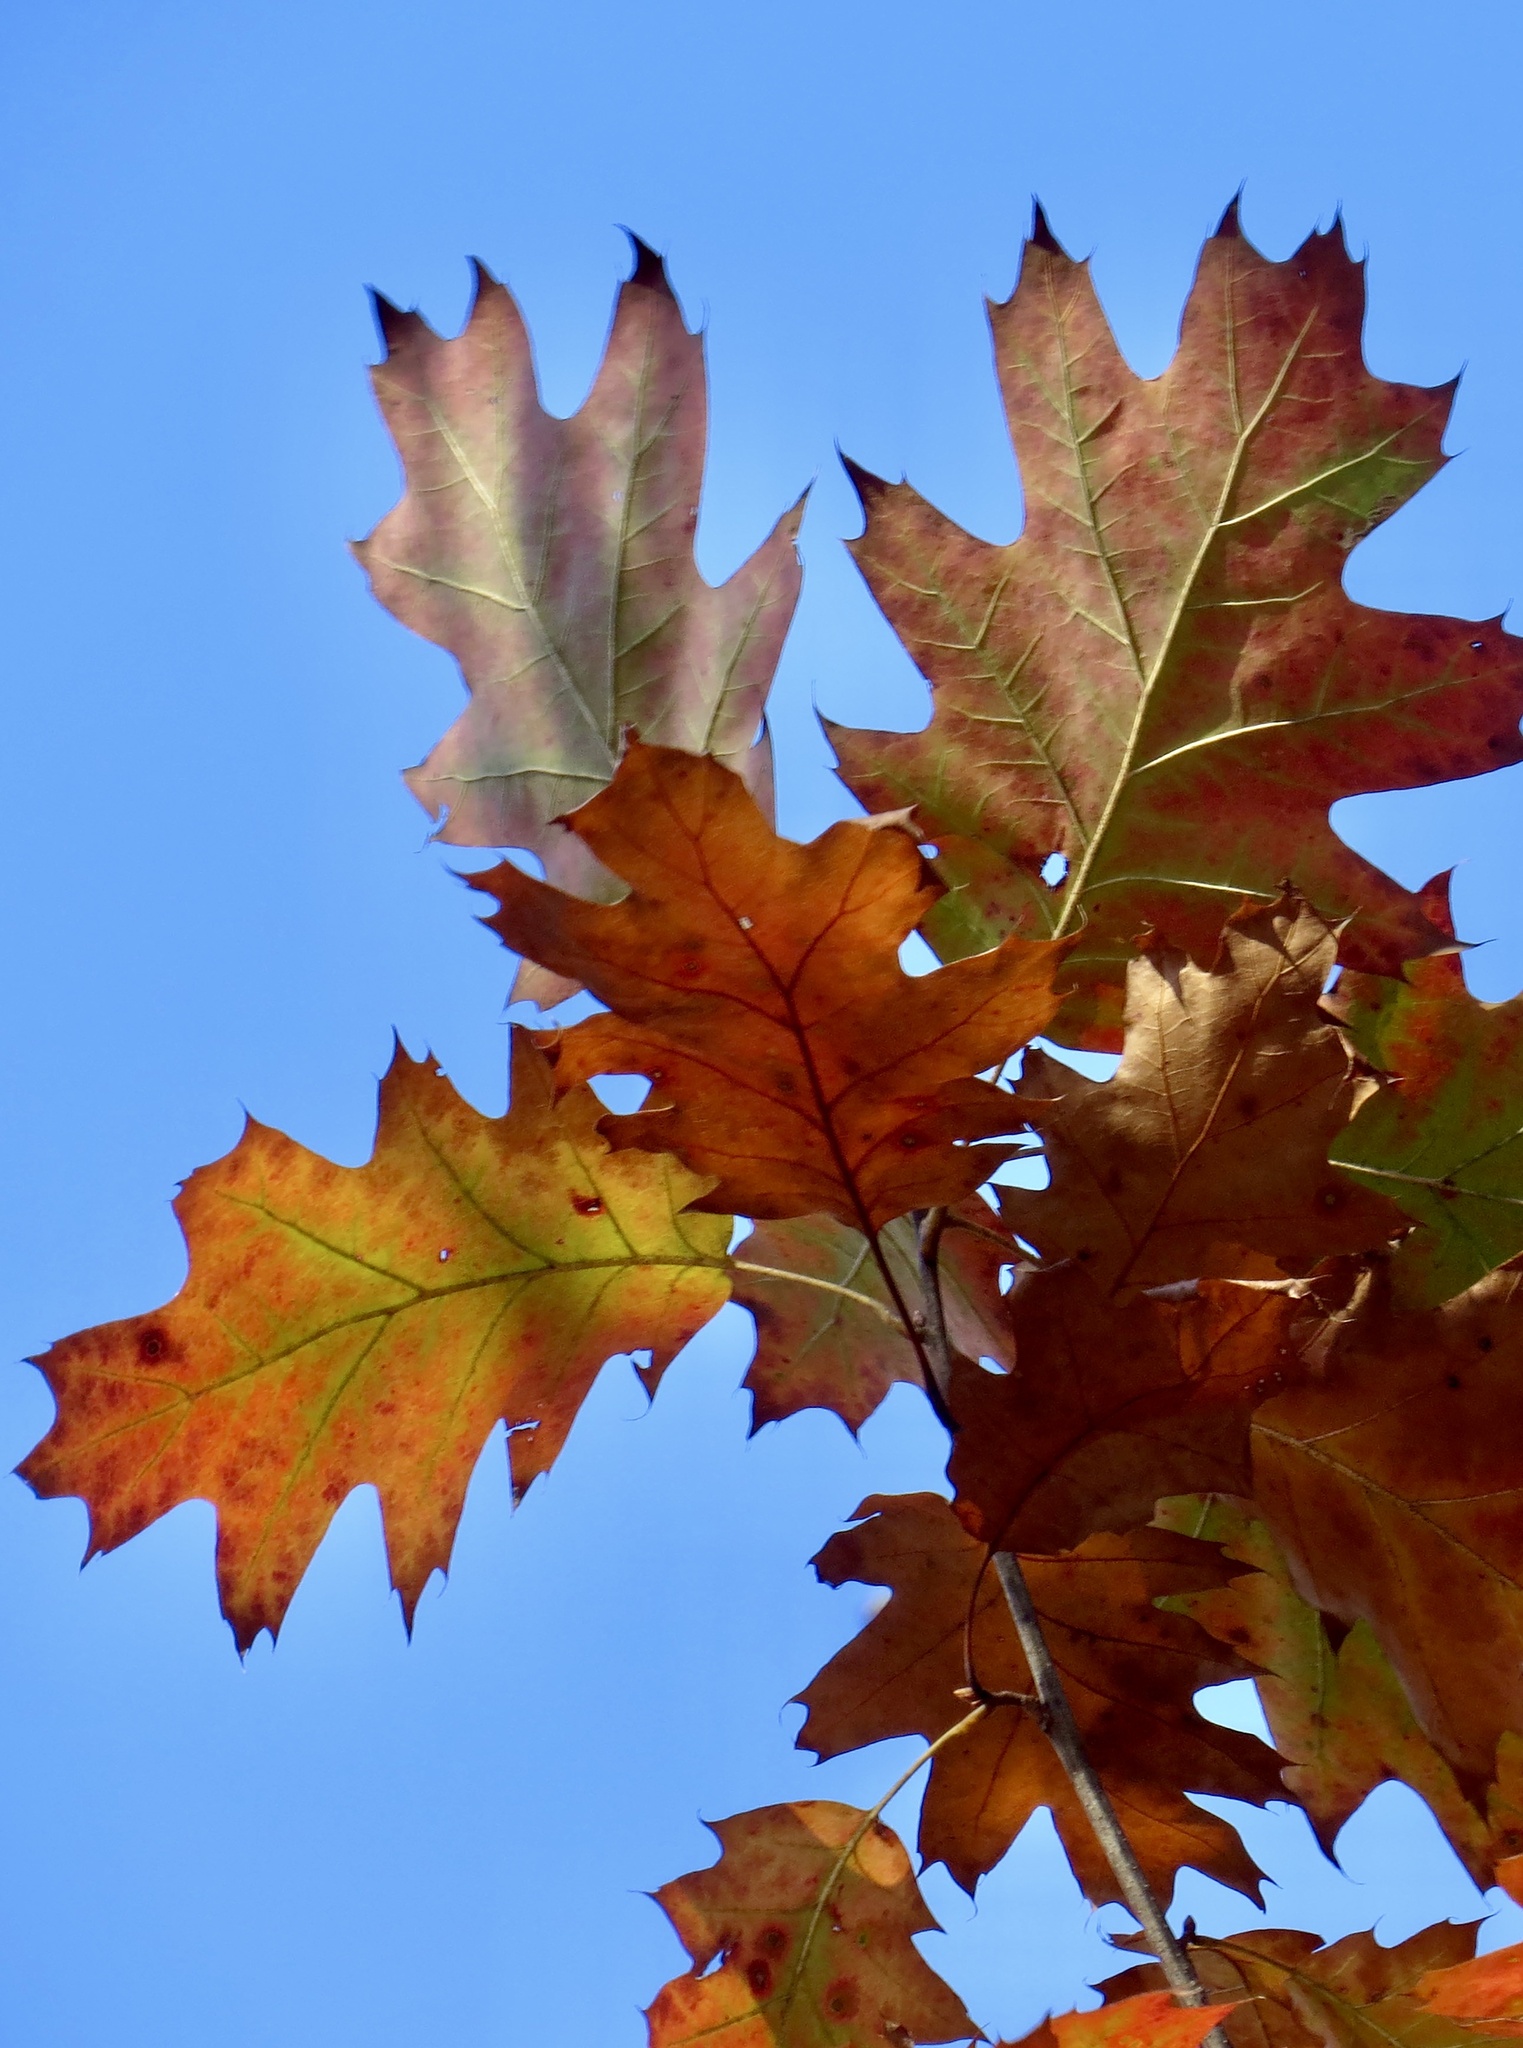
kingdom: Plantae
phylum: Tracheophyta
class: Magnoliopsida
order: Fagales
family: Fagaceae
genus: Quercus
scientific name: Quercus rubra
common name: Red oak
